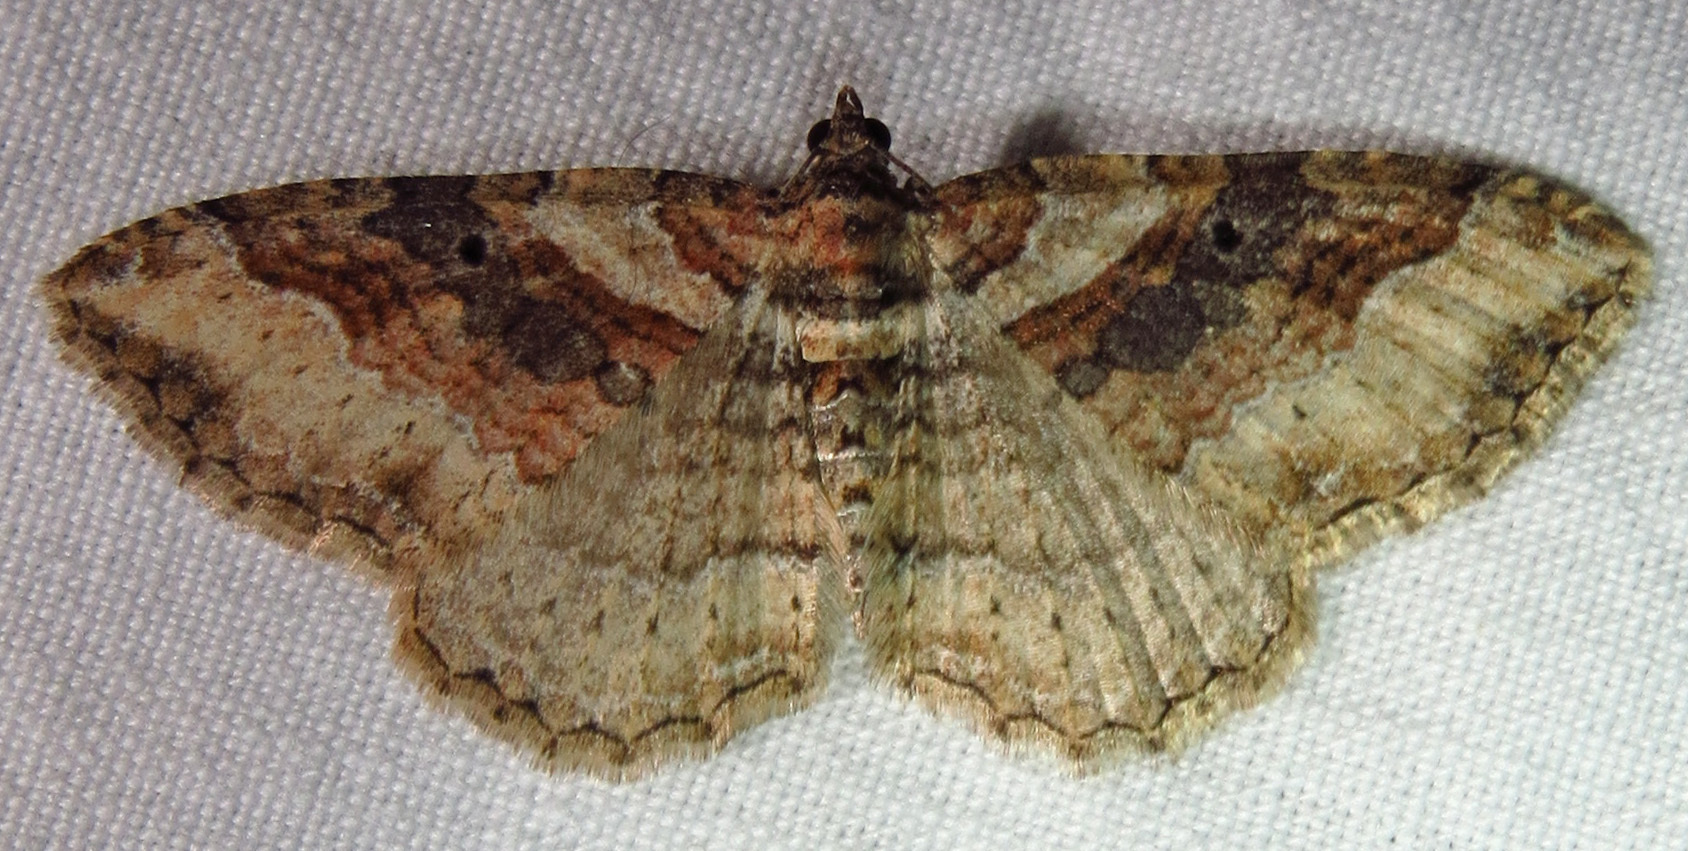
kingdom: Animalia
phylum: Arthropoda
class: Insecta
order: Lepidoptera
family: Geometridae
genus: Costaconvexa
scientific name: Costaconvexa centrostrigaria
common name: Bent-line carpet
